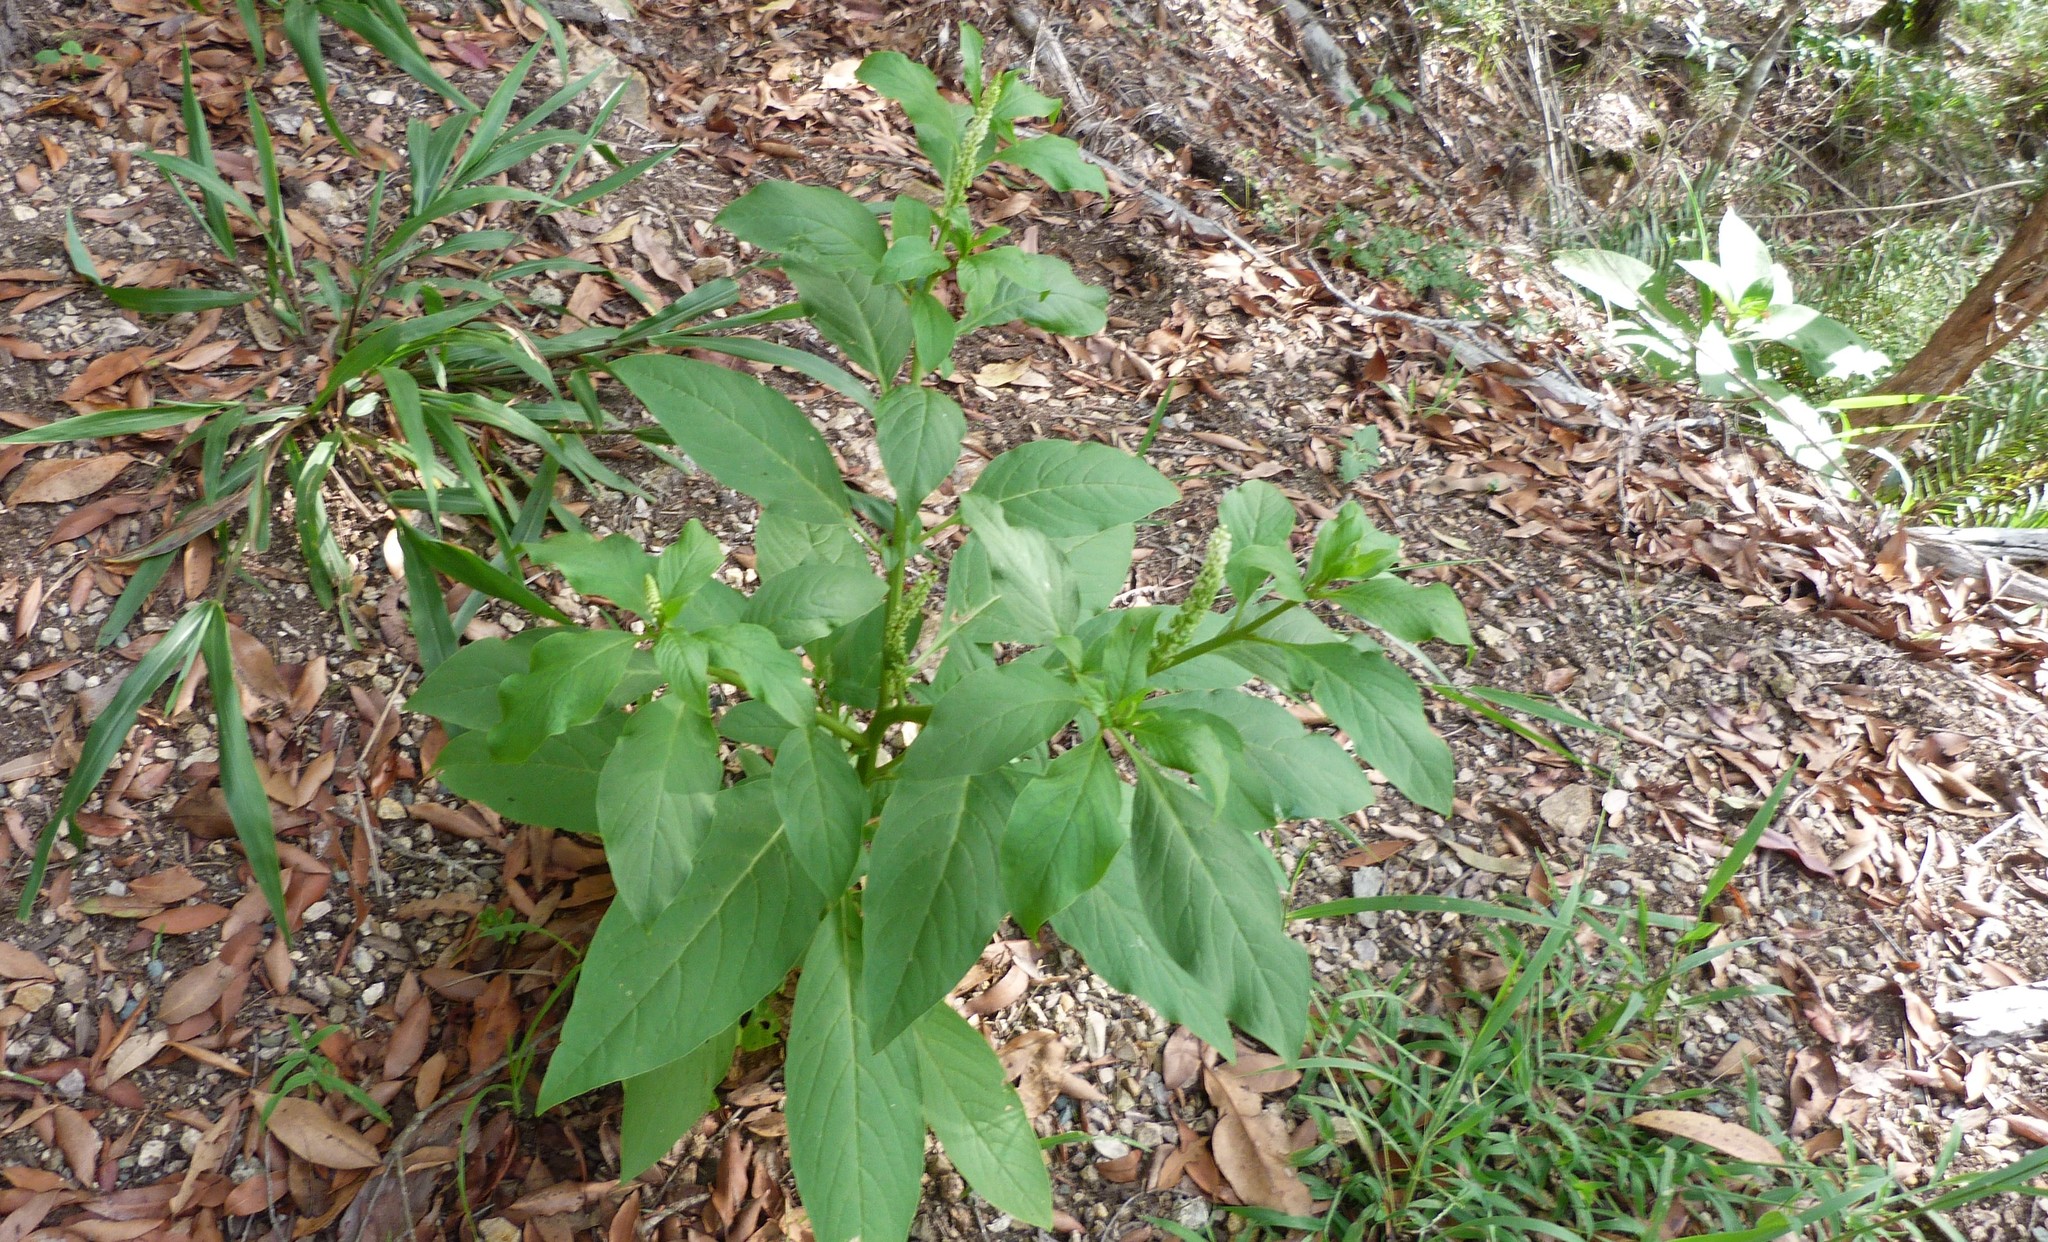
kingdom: Plantae
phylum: Tracheophyta
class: Magnoliopsida
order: Caryophyllales
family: Phytolaccaceae
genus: Phytolacca
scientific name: Phytolacca icosandra
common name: Button pokeweed
